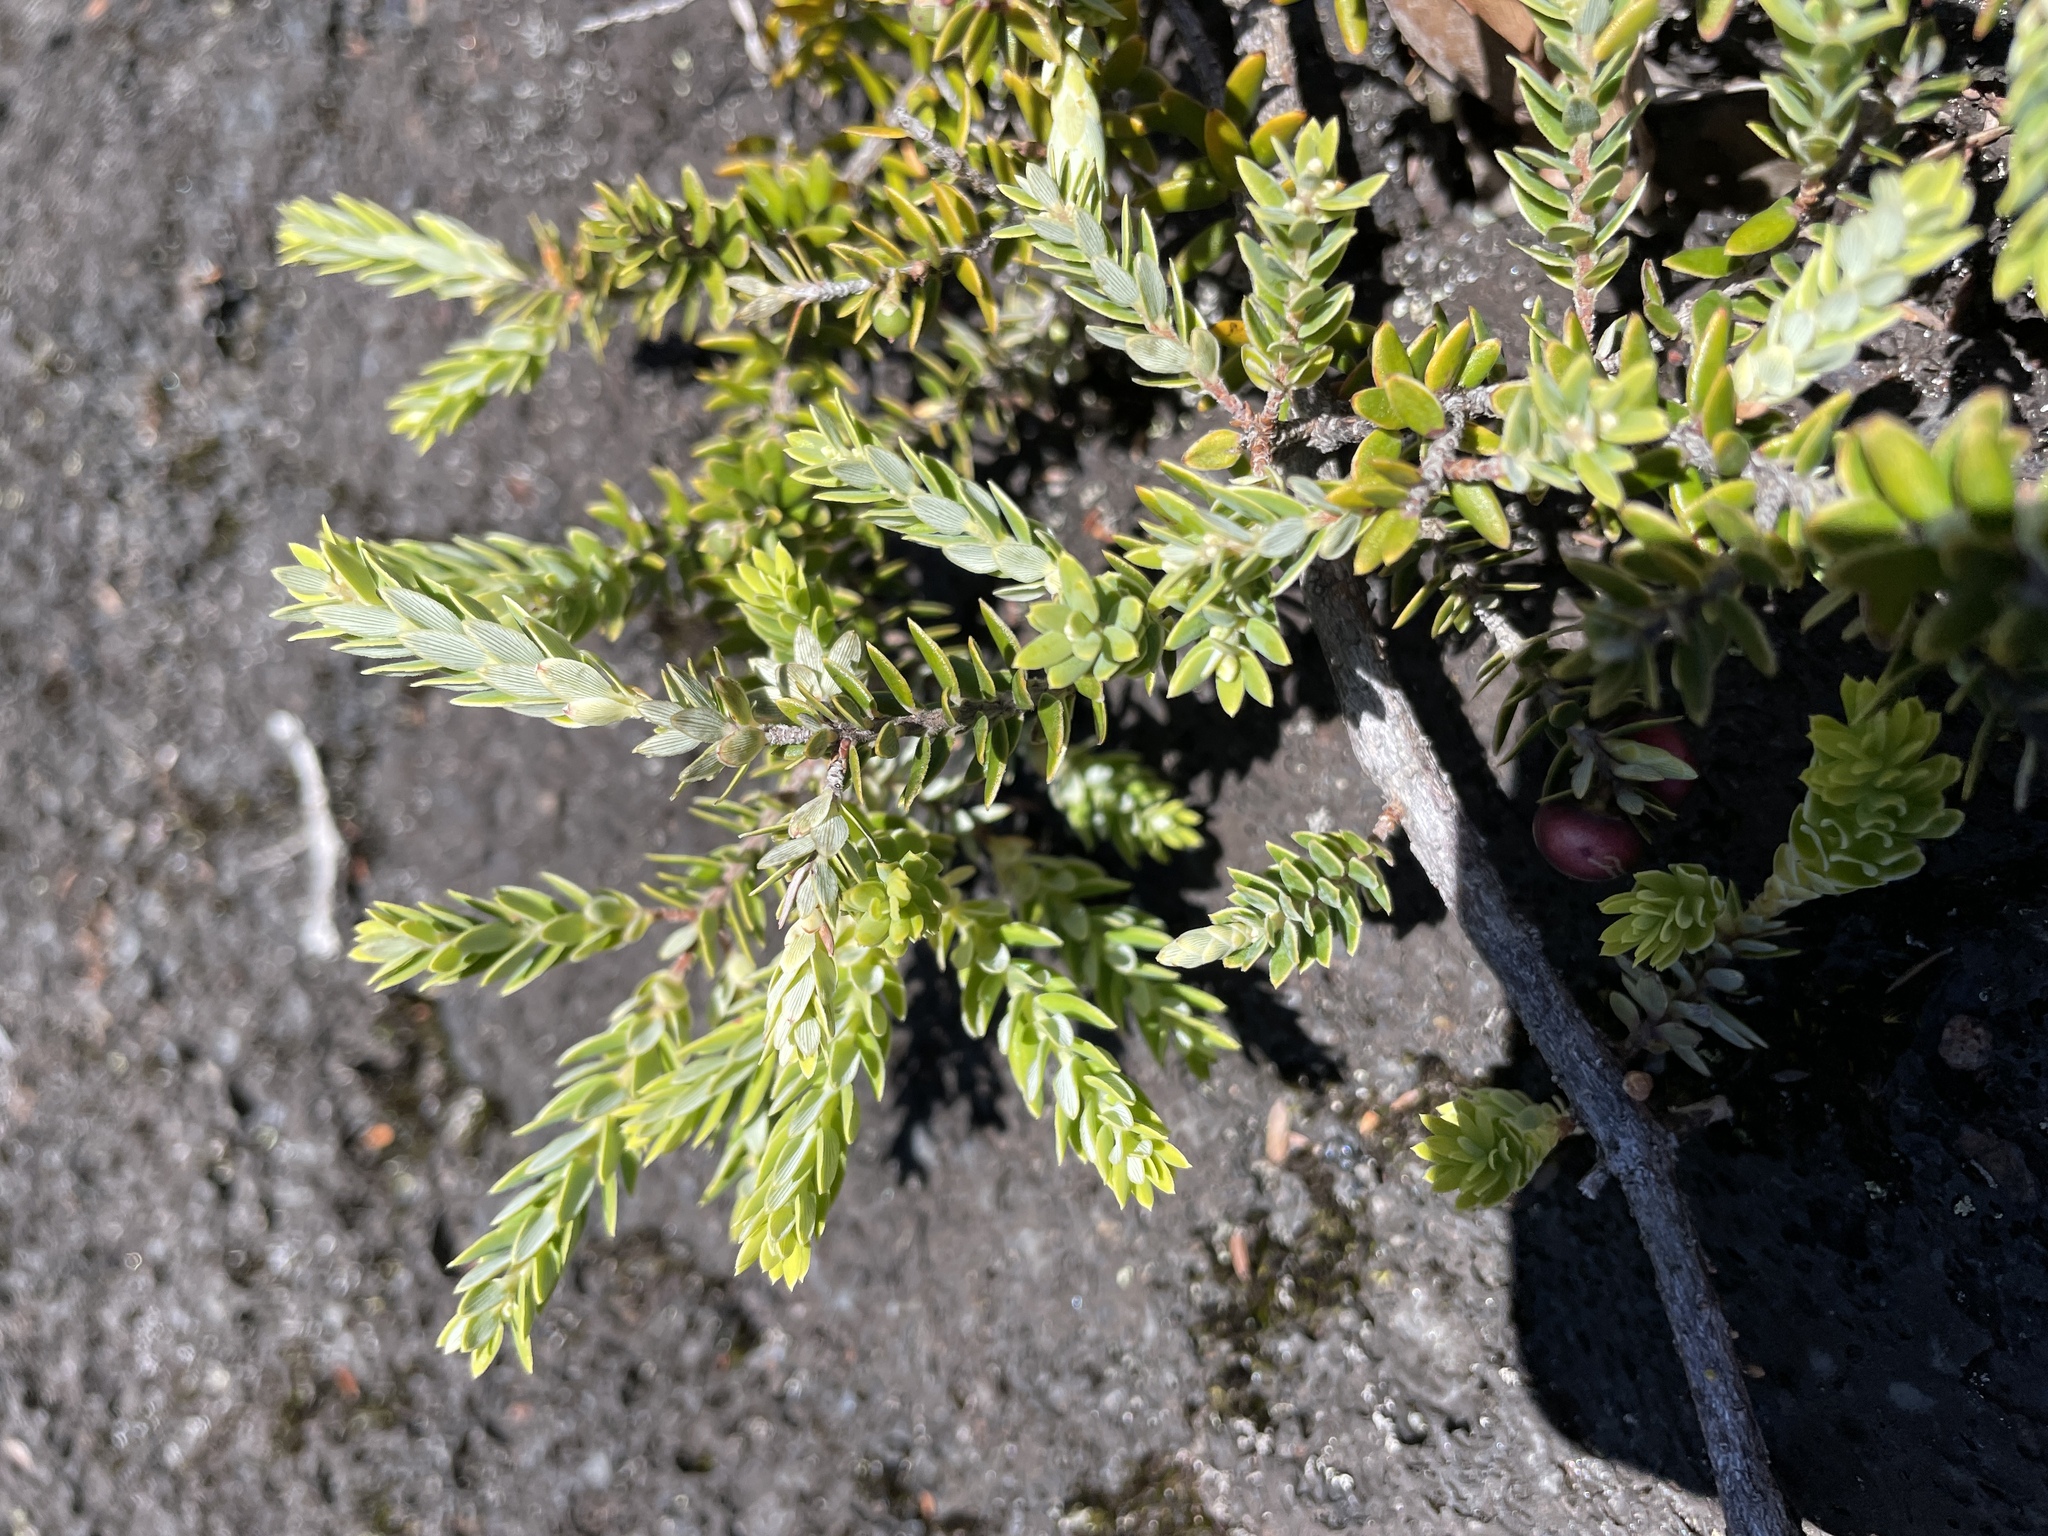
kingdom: Plantae
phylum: Tracheophyta
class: Magnoliopsida
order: Ericales
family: Ericaceae
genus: Leptecophylla
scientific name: Leptecophylla tameiameiae
